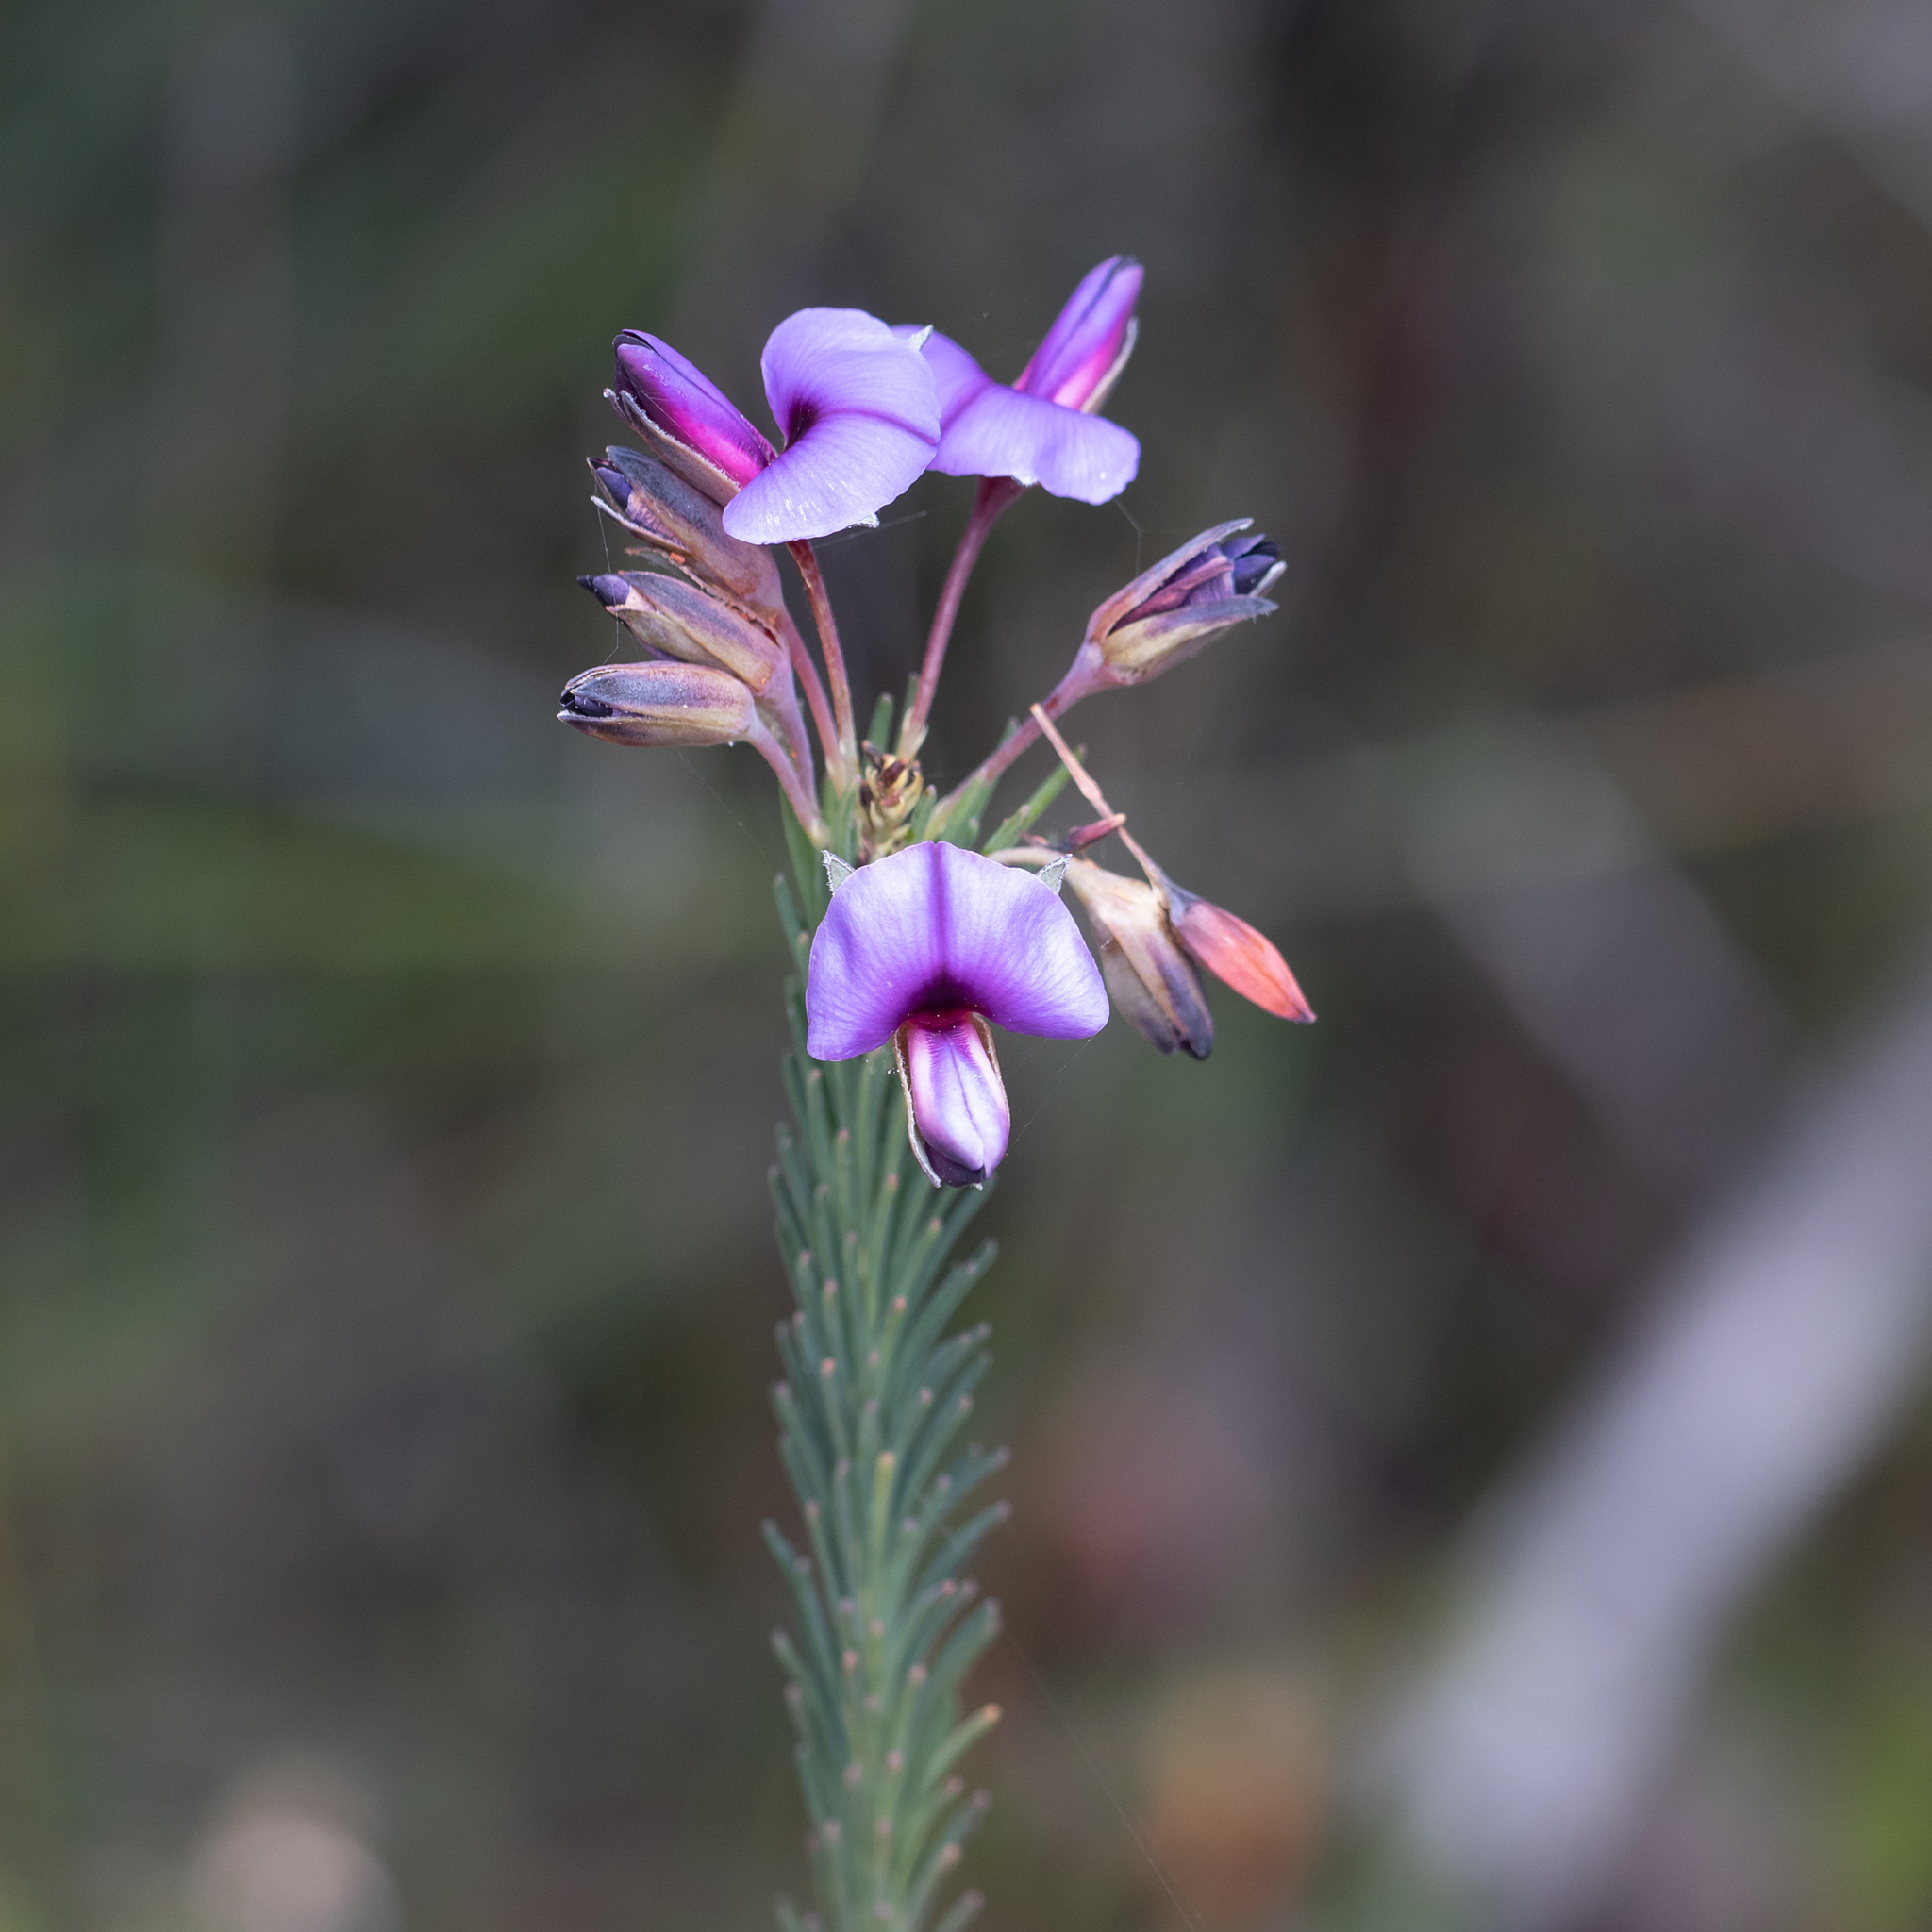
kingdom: Plantae
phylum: Tracheophyta
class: Magnoliopsida
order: Fabales
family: Fabaceae
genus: Gompholobium
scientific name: Gompholobium confertum
